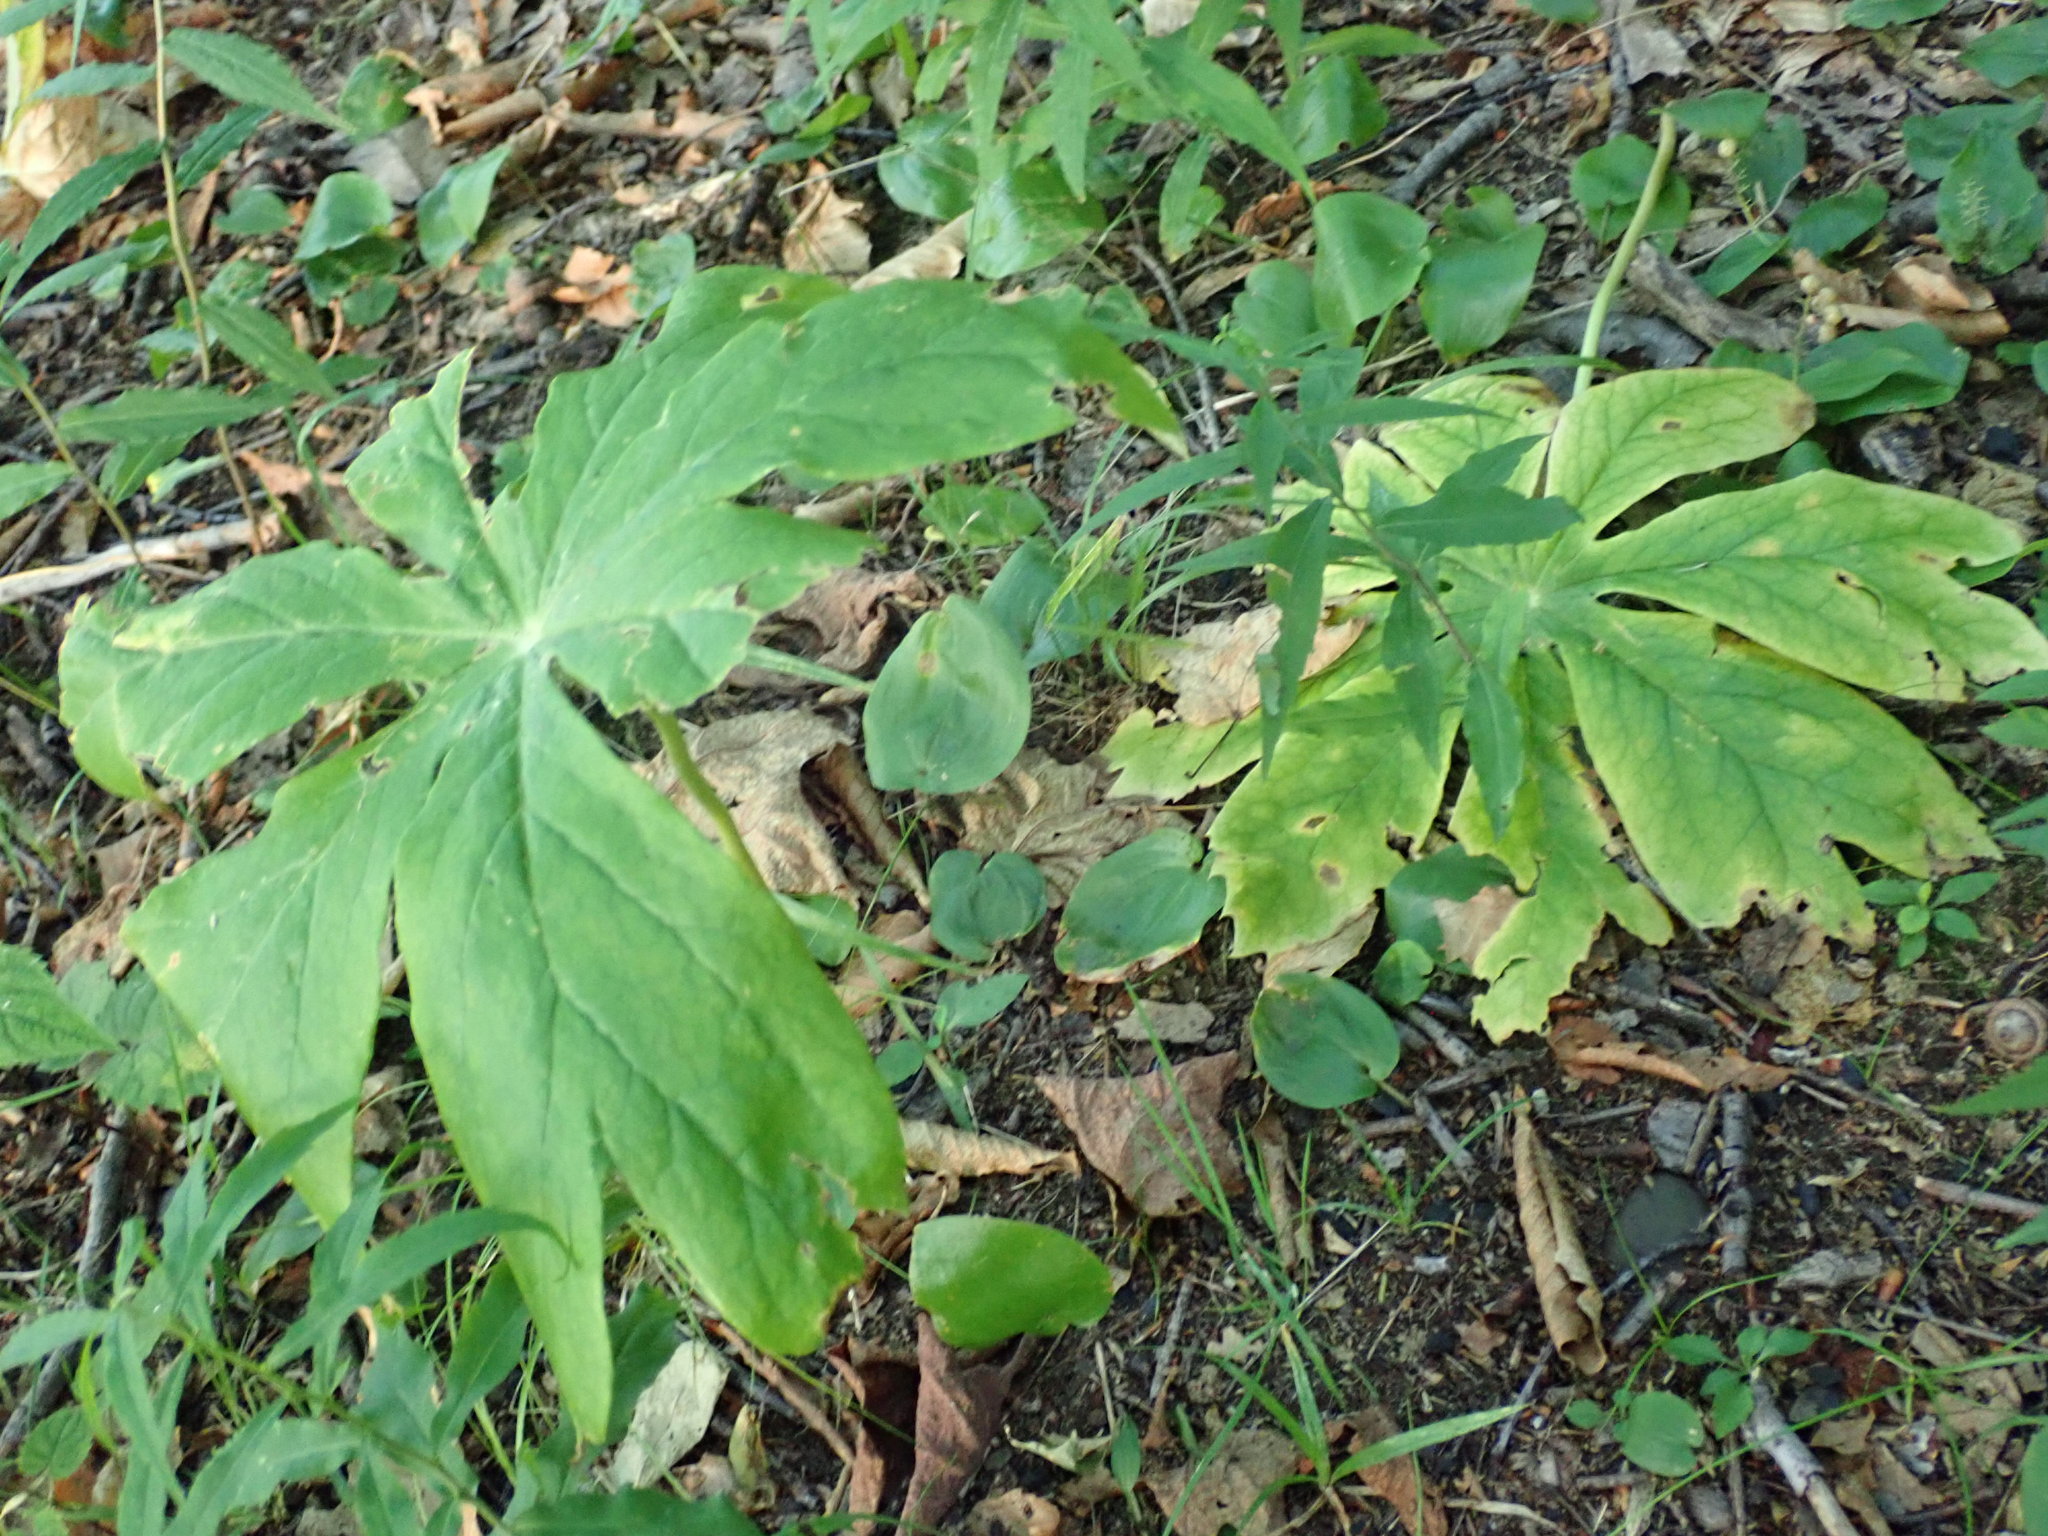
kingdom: Plantae
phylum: Tracheophyta
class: Magnoliopsida
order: Ranunculales
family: Berberidaceae
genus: Podophyllum
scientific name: Podophyllum peltatum
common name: Wild mandrake
